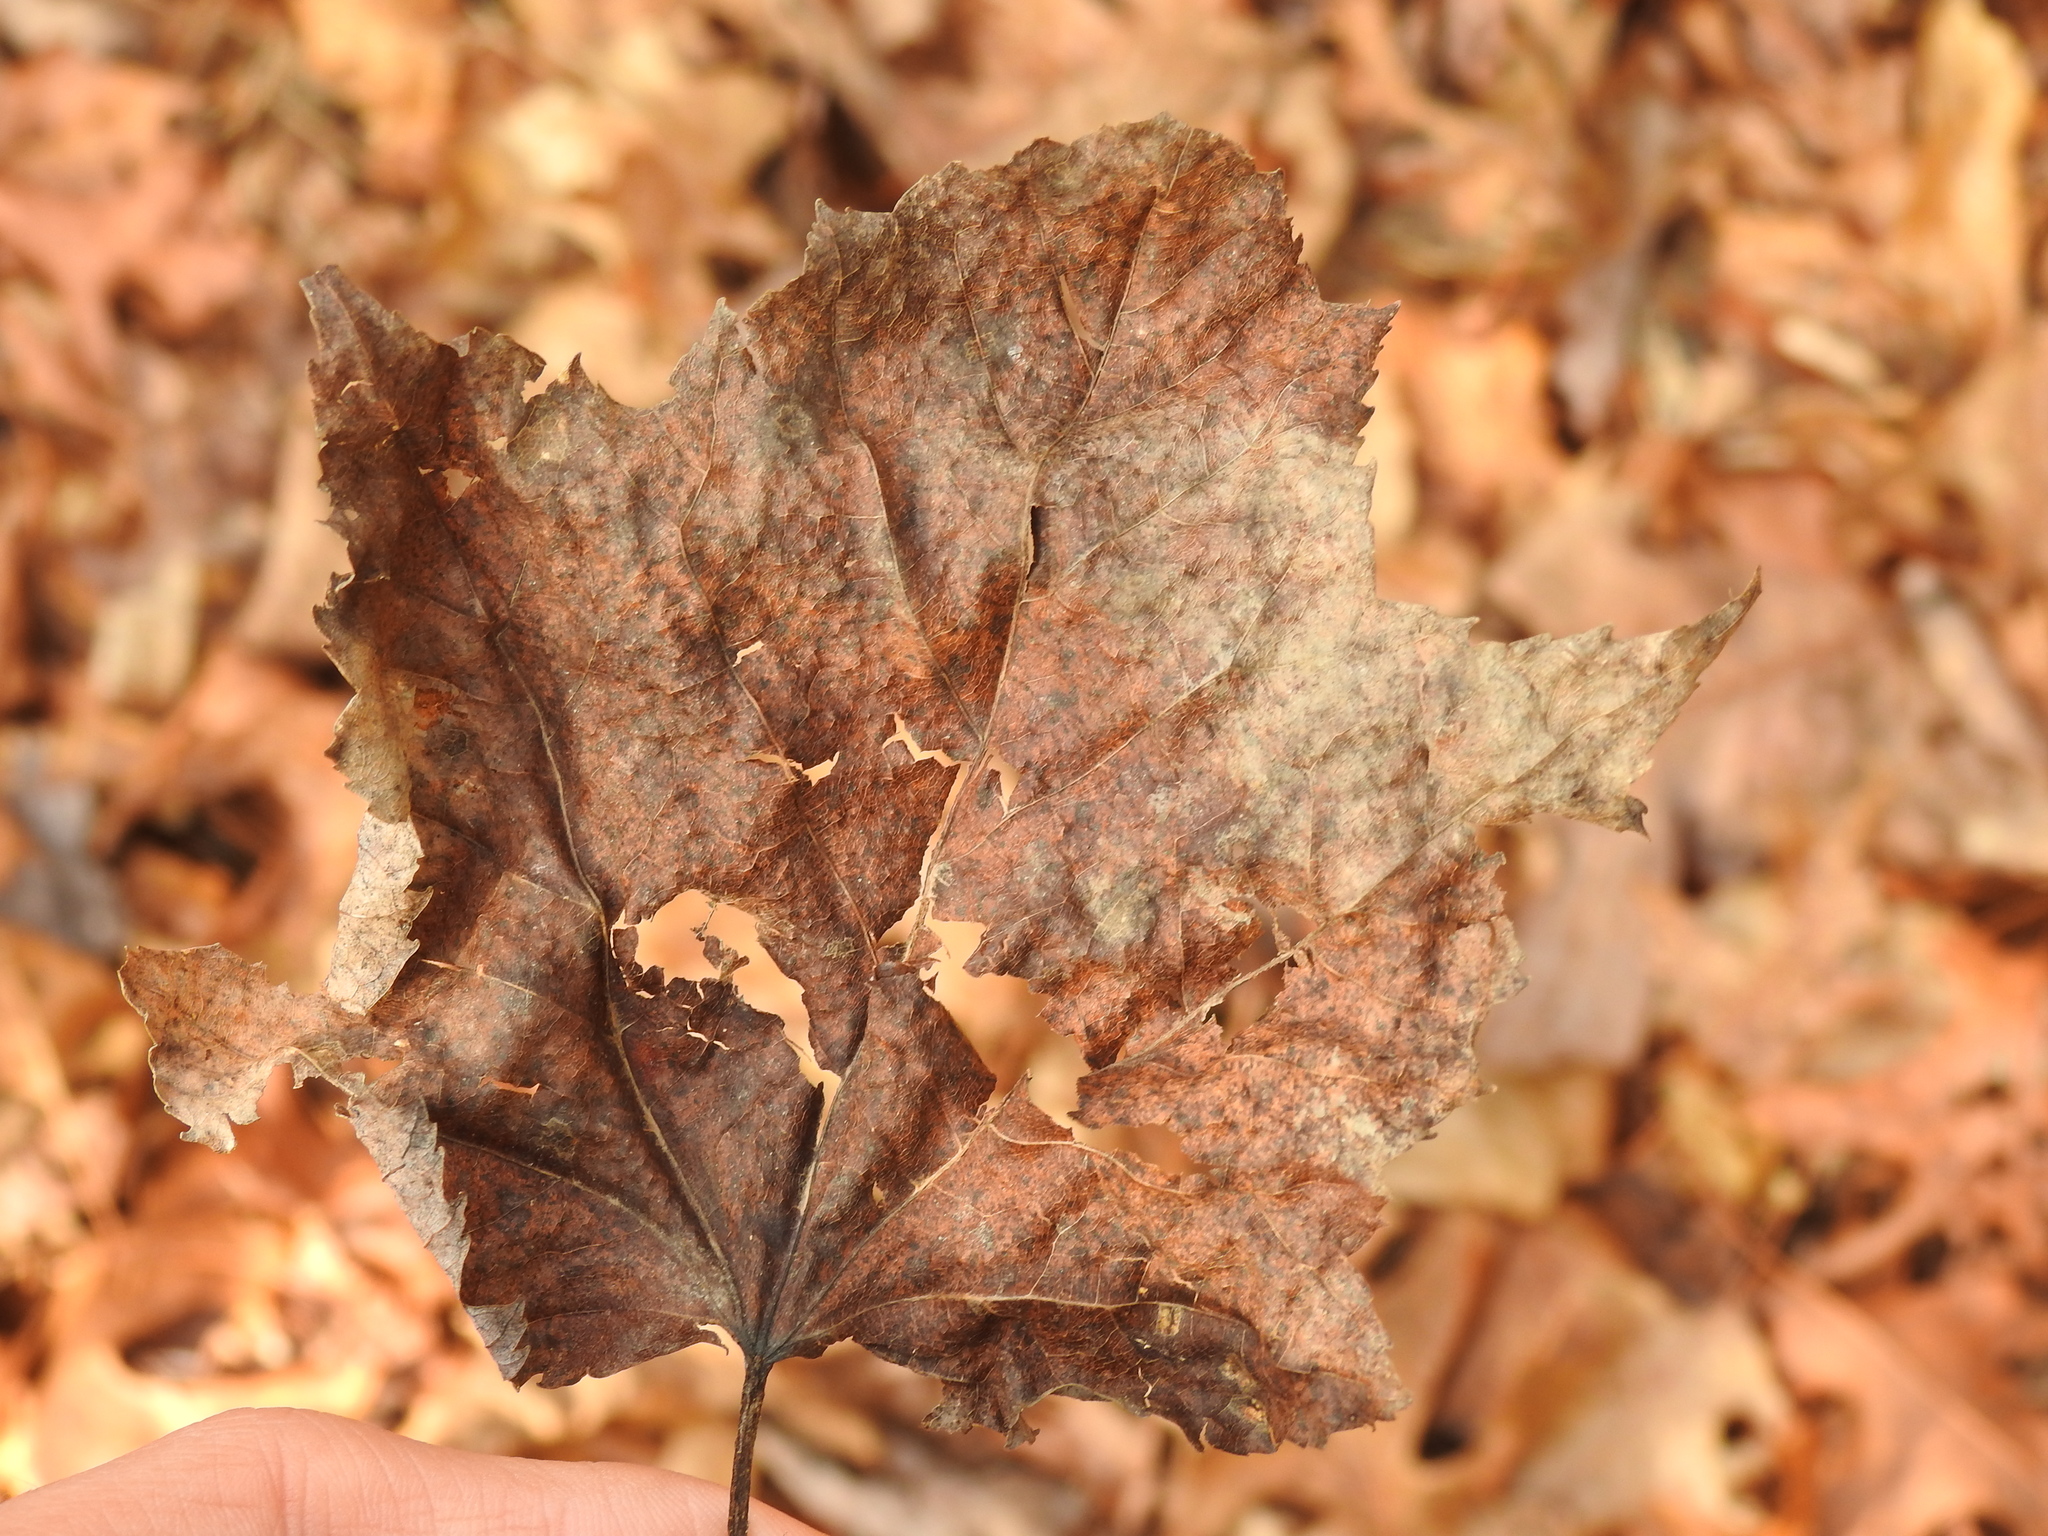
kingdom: Plantae
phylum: Tracheophyta
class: Magnoliopsida
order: Sapindales
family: Sapindaceae
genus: Acer
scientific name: Acer rubrum
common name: Red maple
